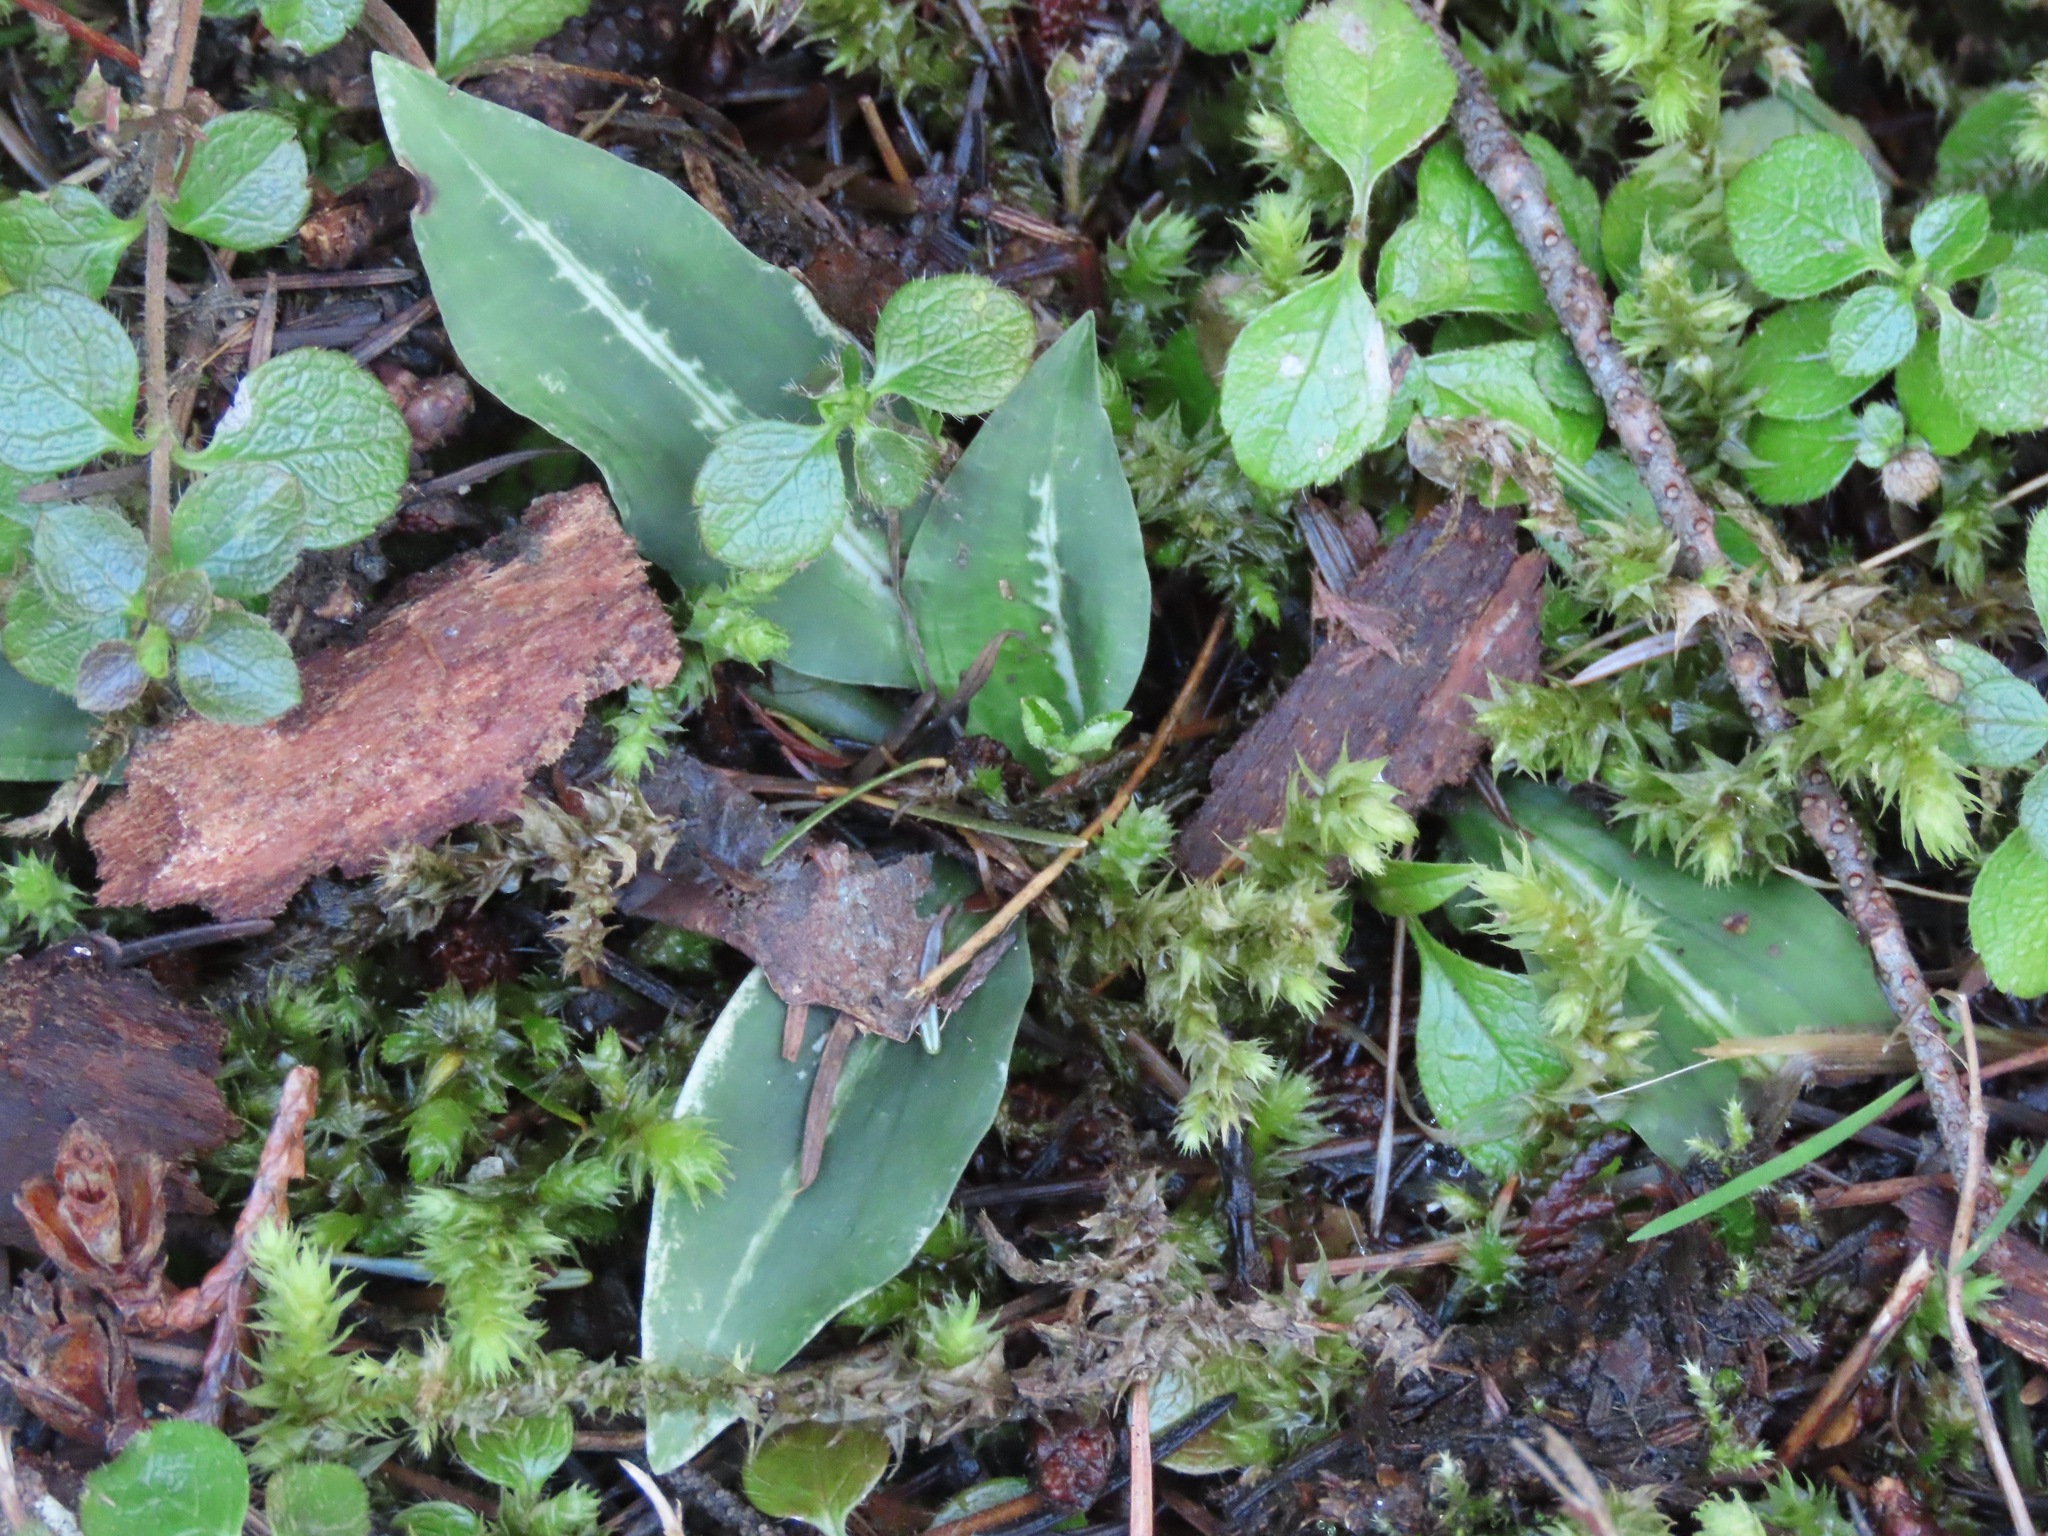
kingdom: Plantae
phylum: Tracheophyta
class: Liliopsida
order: Asparagales
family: Orchidaceae
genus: Goodyera
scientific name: Goodyera oblongifolia
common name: Giant rattlesnake-plantain
